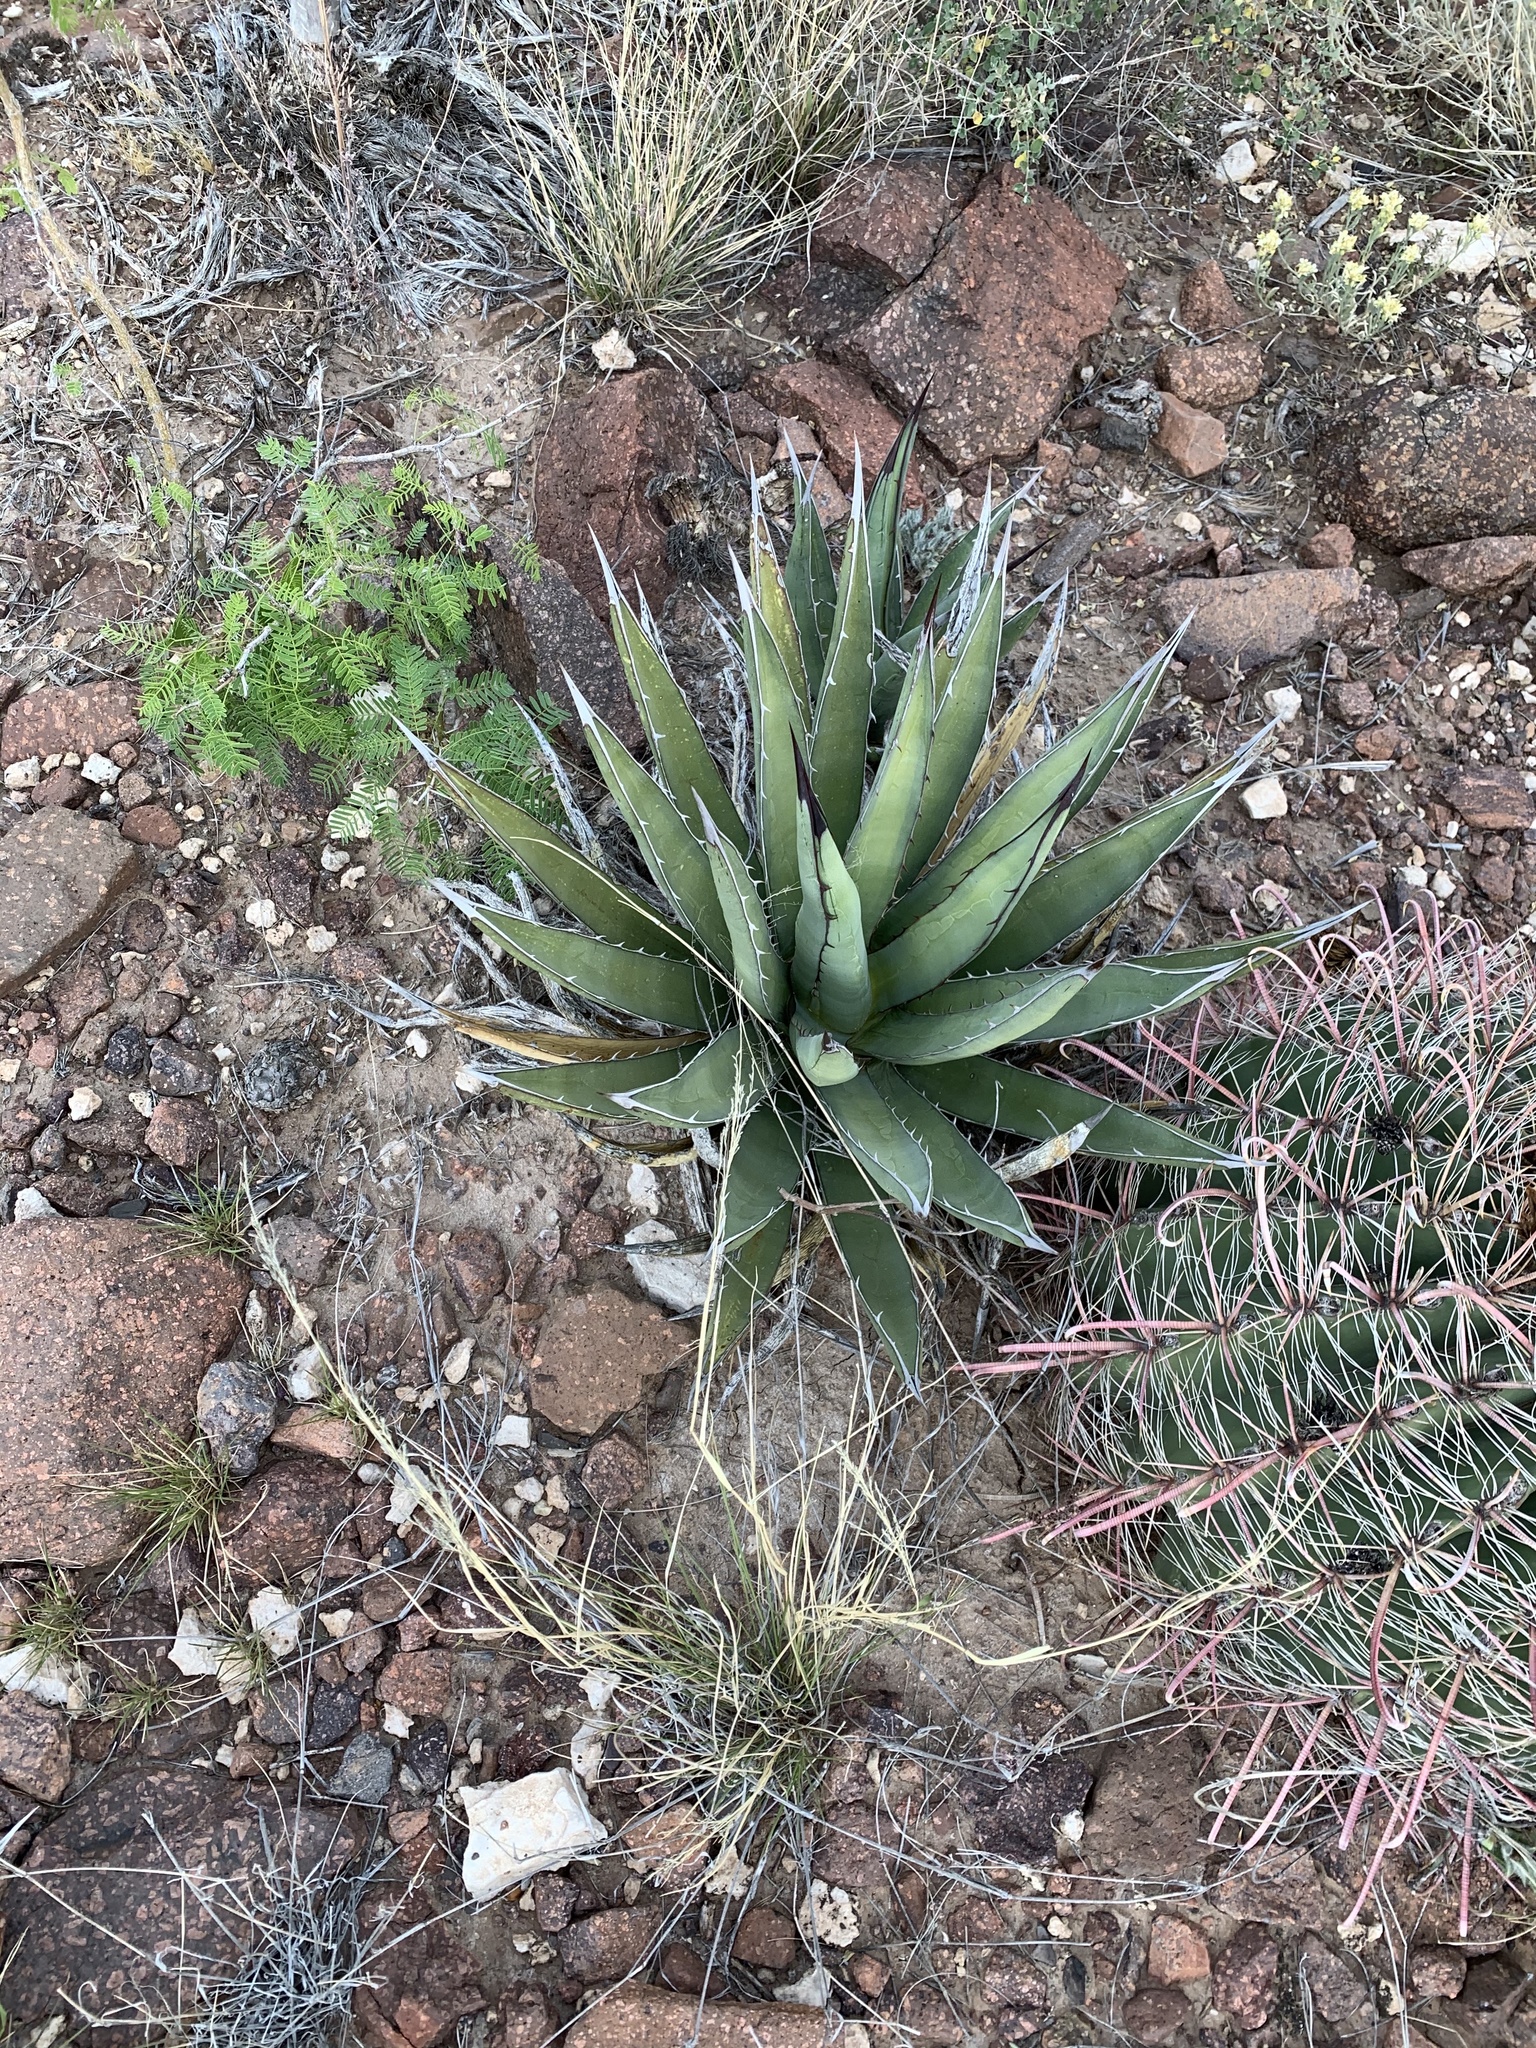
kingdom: Plantae
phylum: Tracheophyta
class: Liliopsida
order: Asparagales
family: Asparagaceae
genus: Agave
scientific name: Agave lechuguilla
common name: Lecheguilla agave
